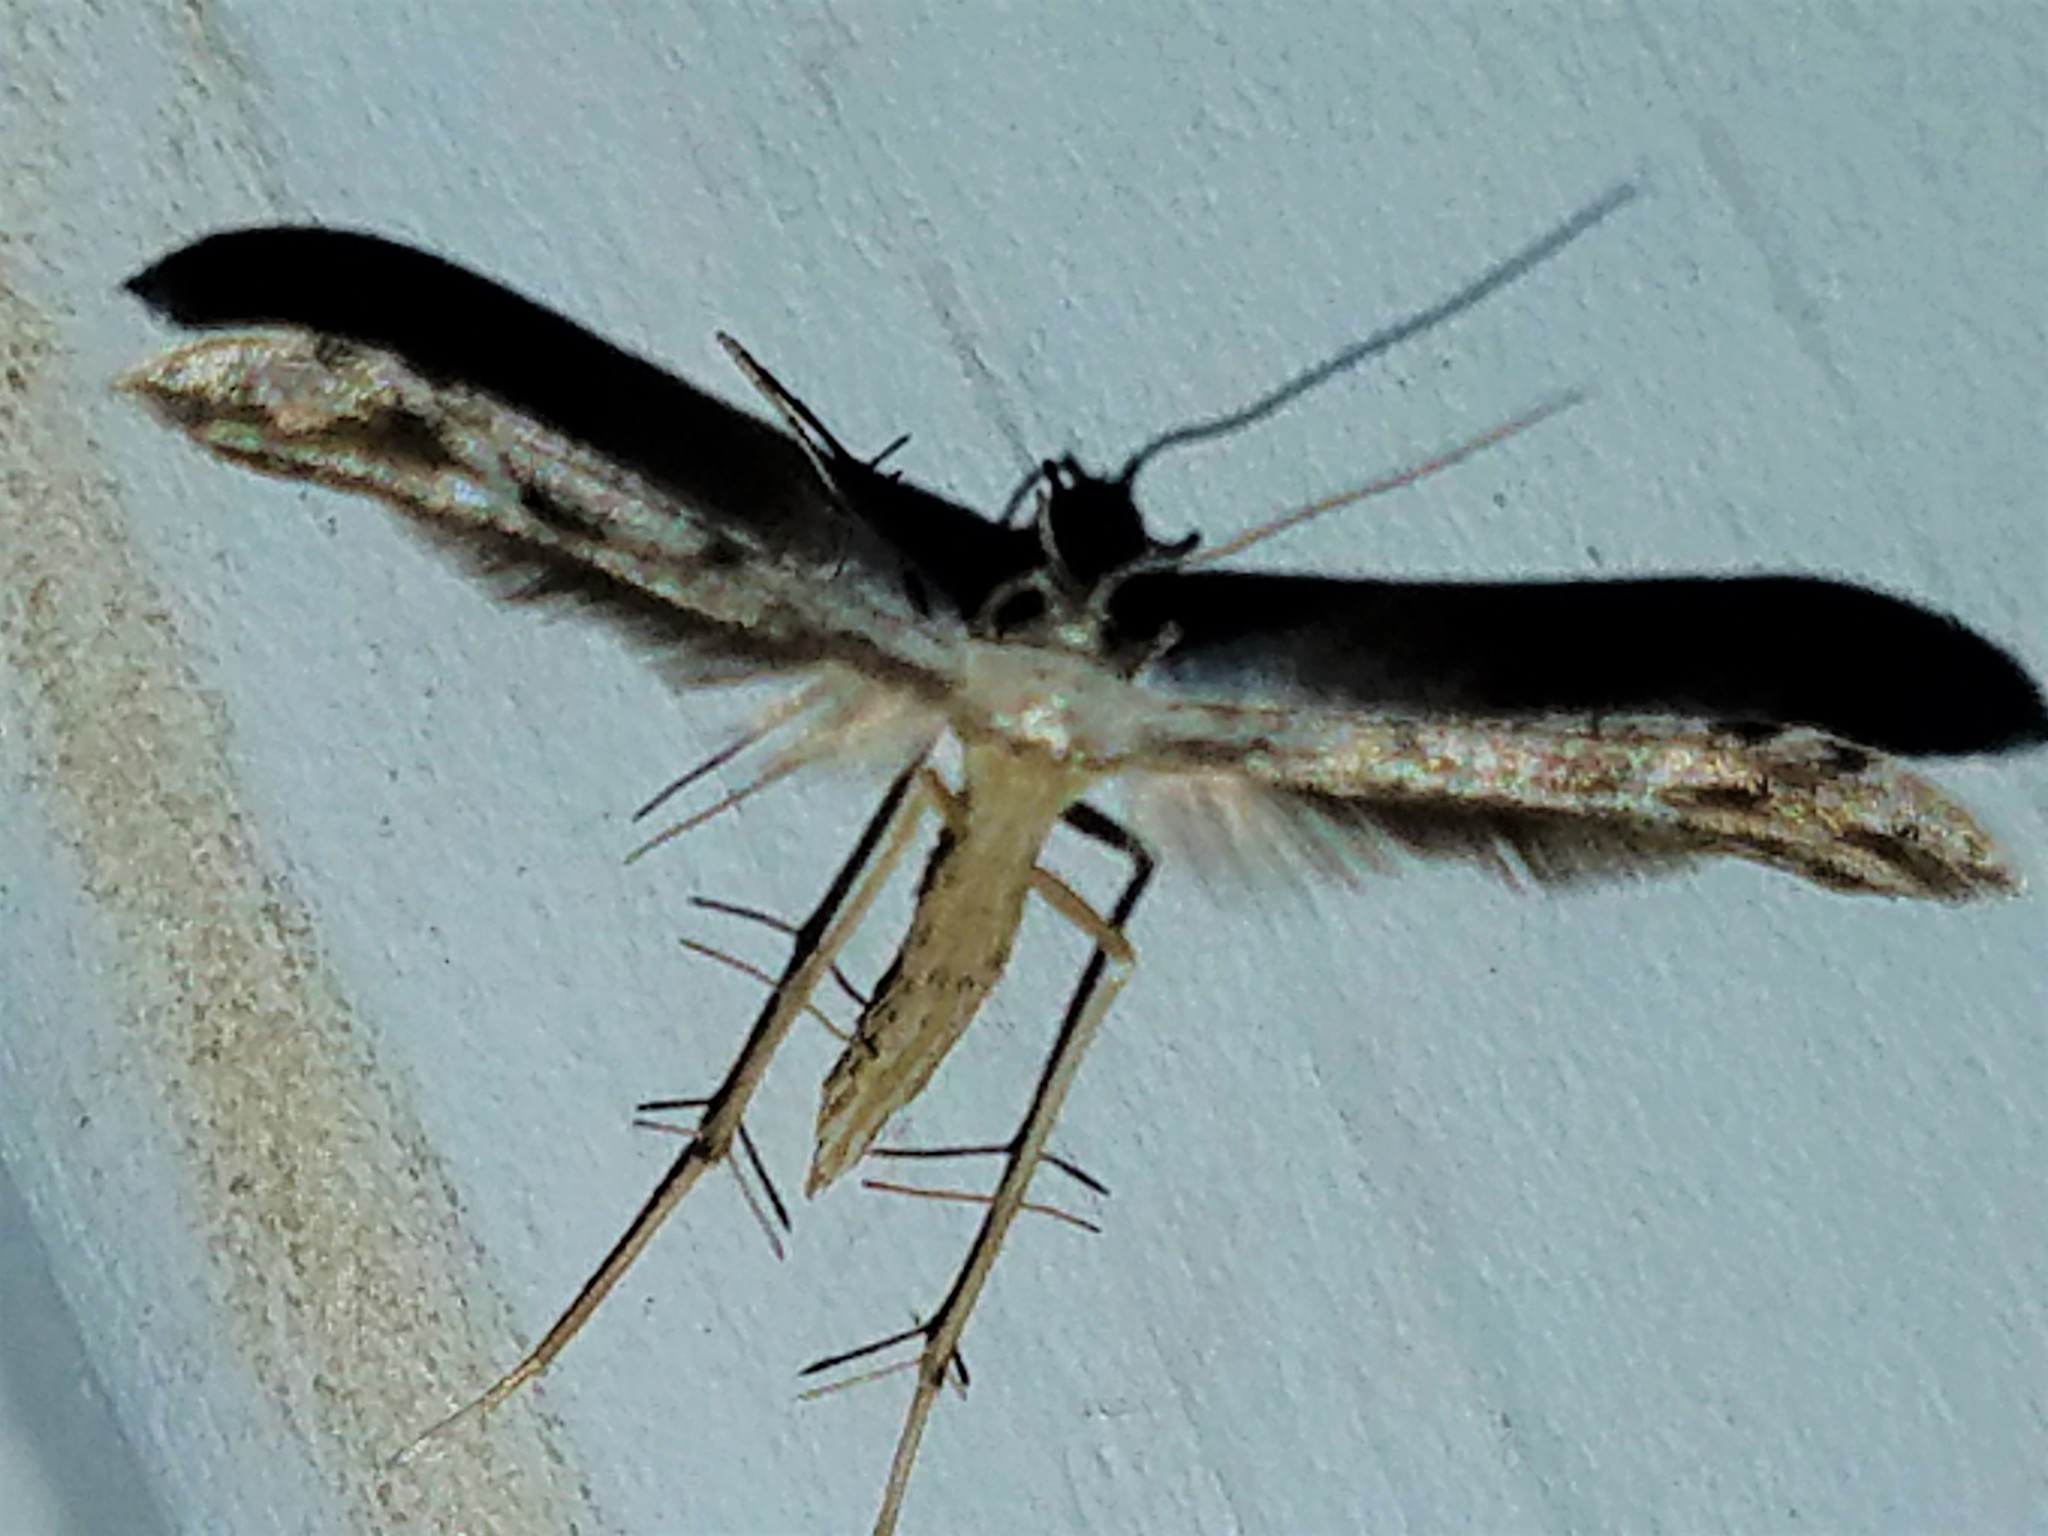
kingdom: Animalia
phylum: Arthropoda
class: Insecta
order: Lepidoptera
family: Pterophoridae
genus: Pselnophorus
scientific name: Pselnophorus belfragei
